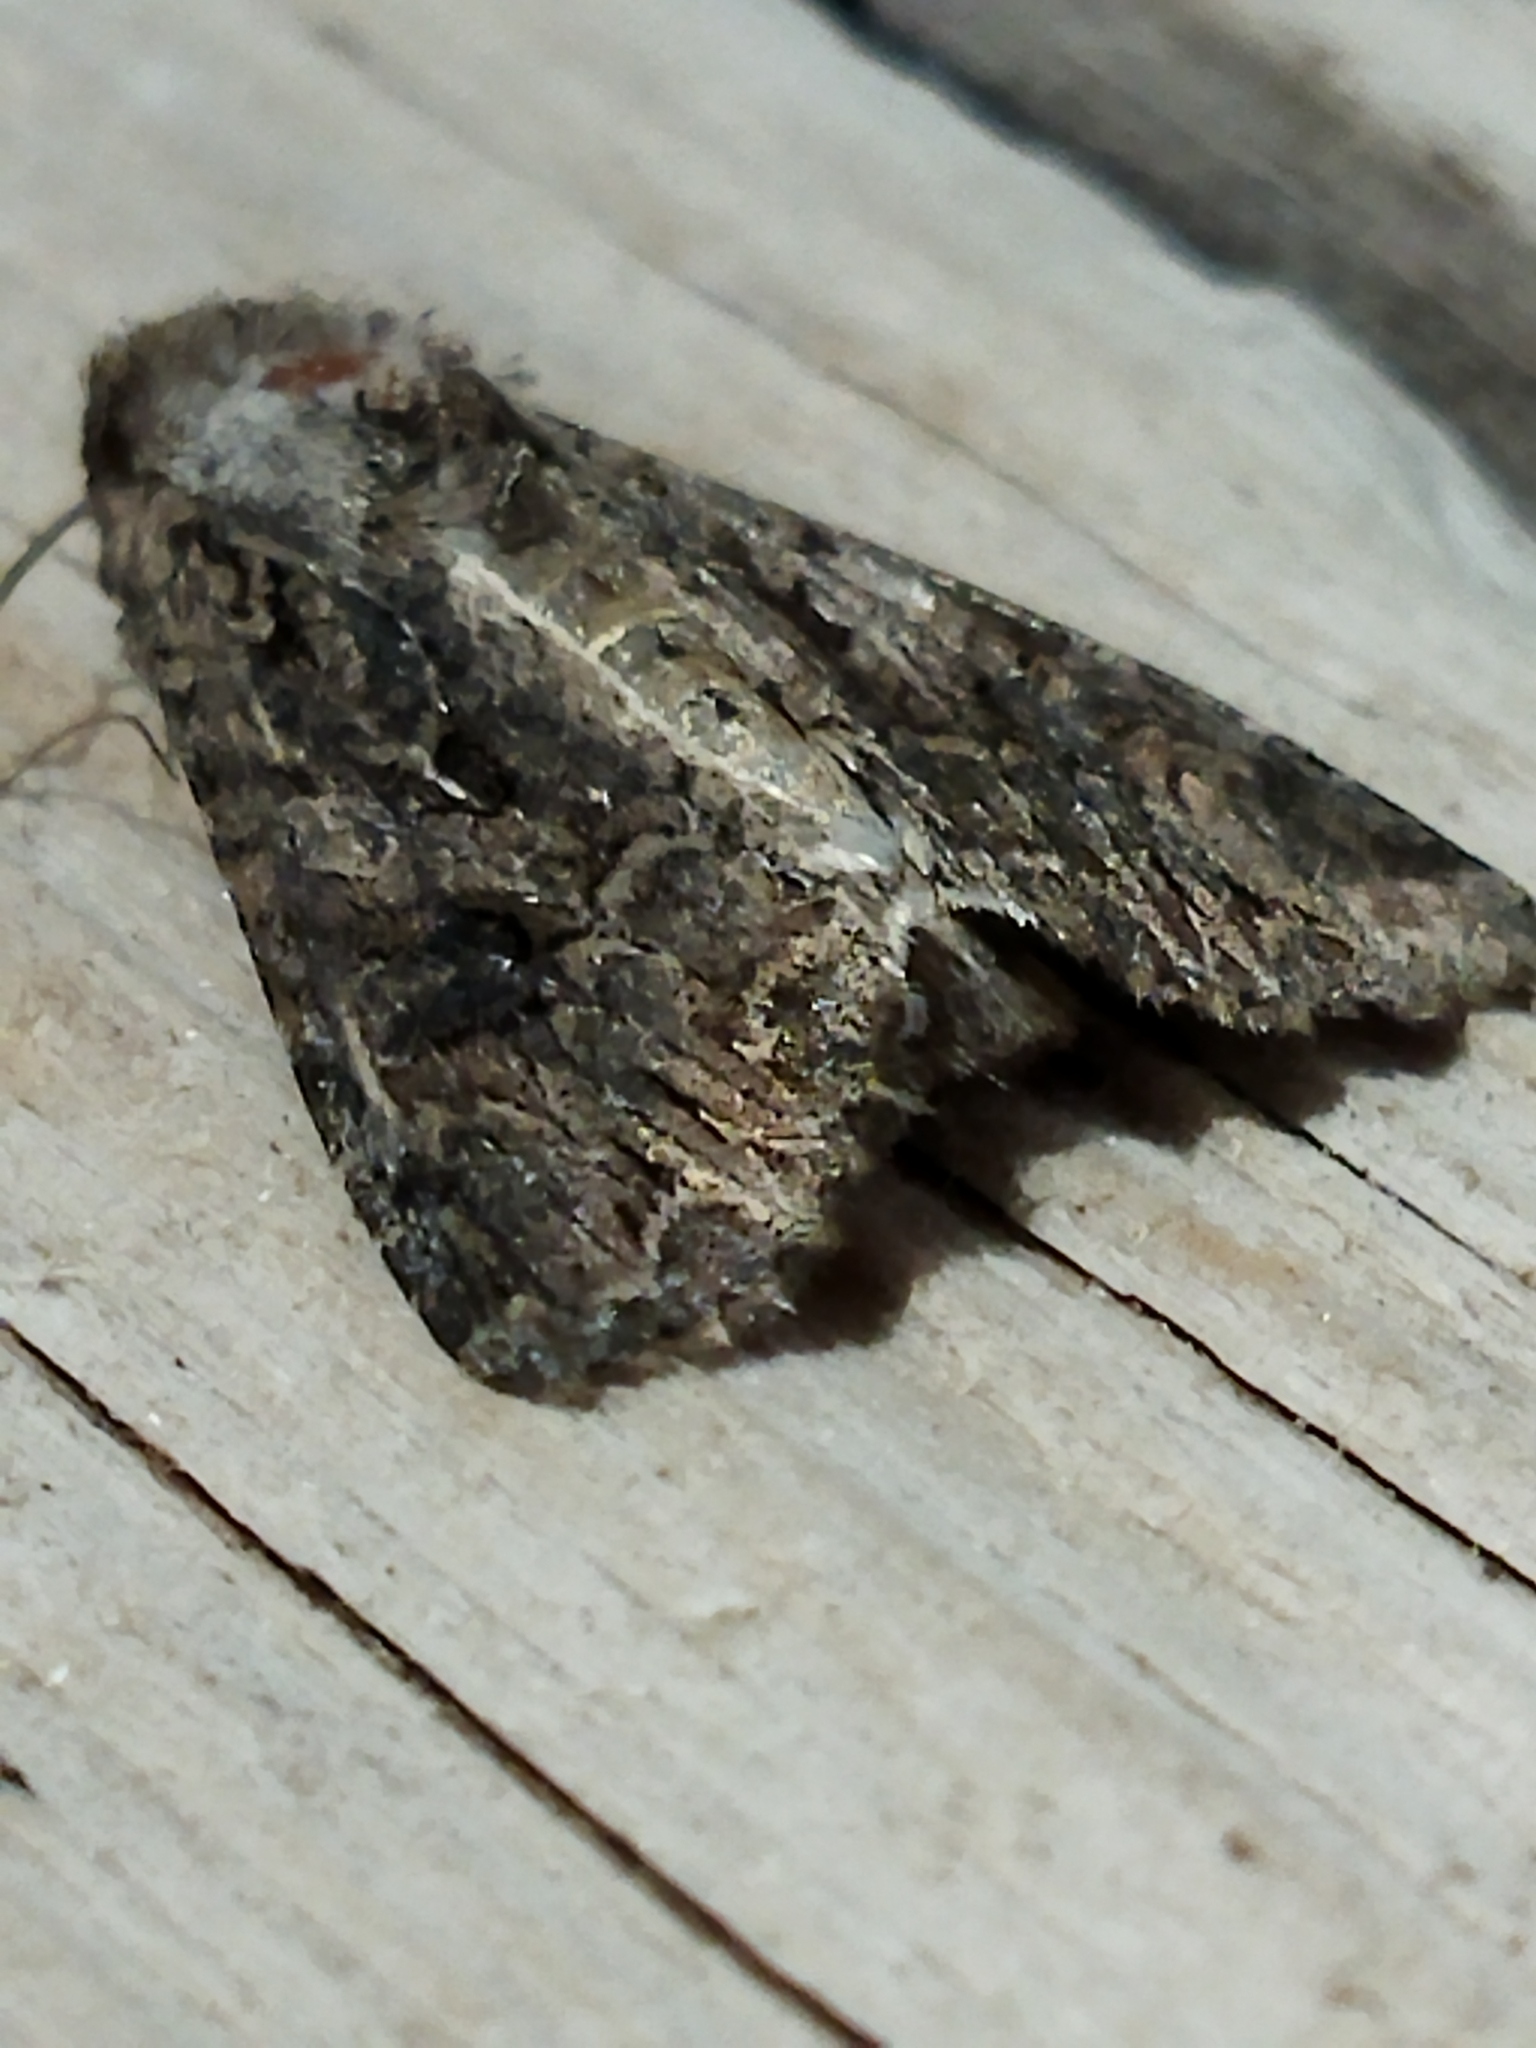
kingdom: Animalia
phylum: Arthropoda
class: Insecta
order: Lepidoptera
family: Noctuidae
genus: Anarta
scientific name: Anarta trifolii
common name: Clover cutworm moth
